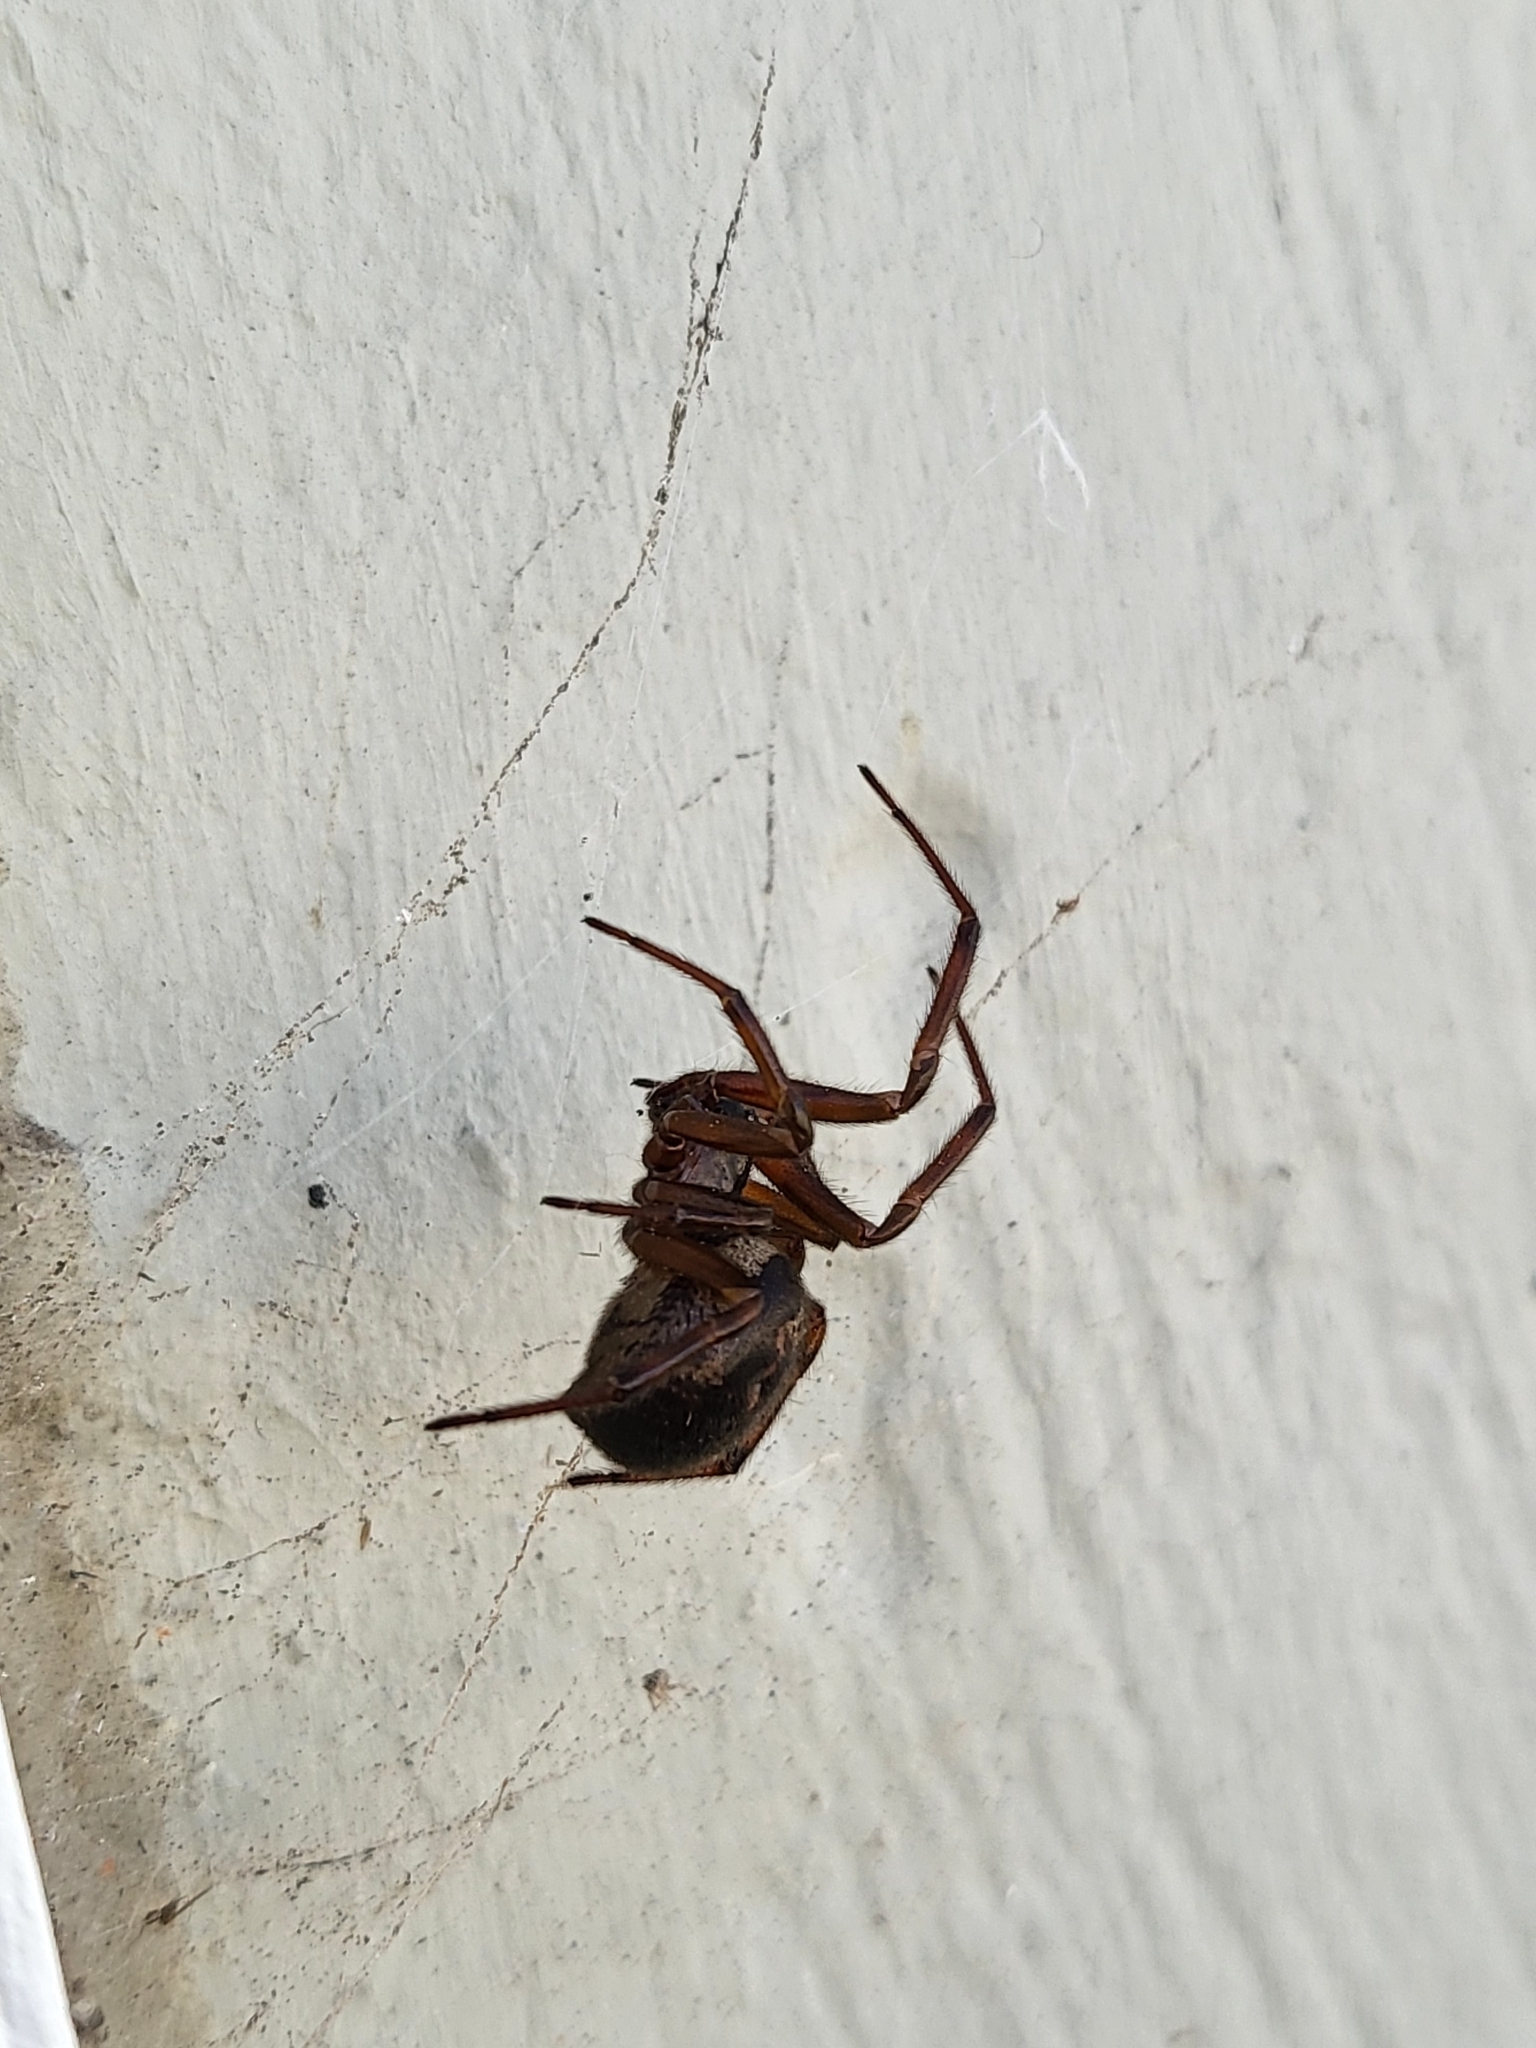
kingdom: Animalia
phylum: Arthropoda
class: Arachnida
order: Araneae
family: Theridiidae
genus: Steatoda
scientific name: Steatoda nobilis
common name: Cobweb weaver
